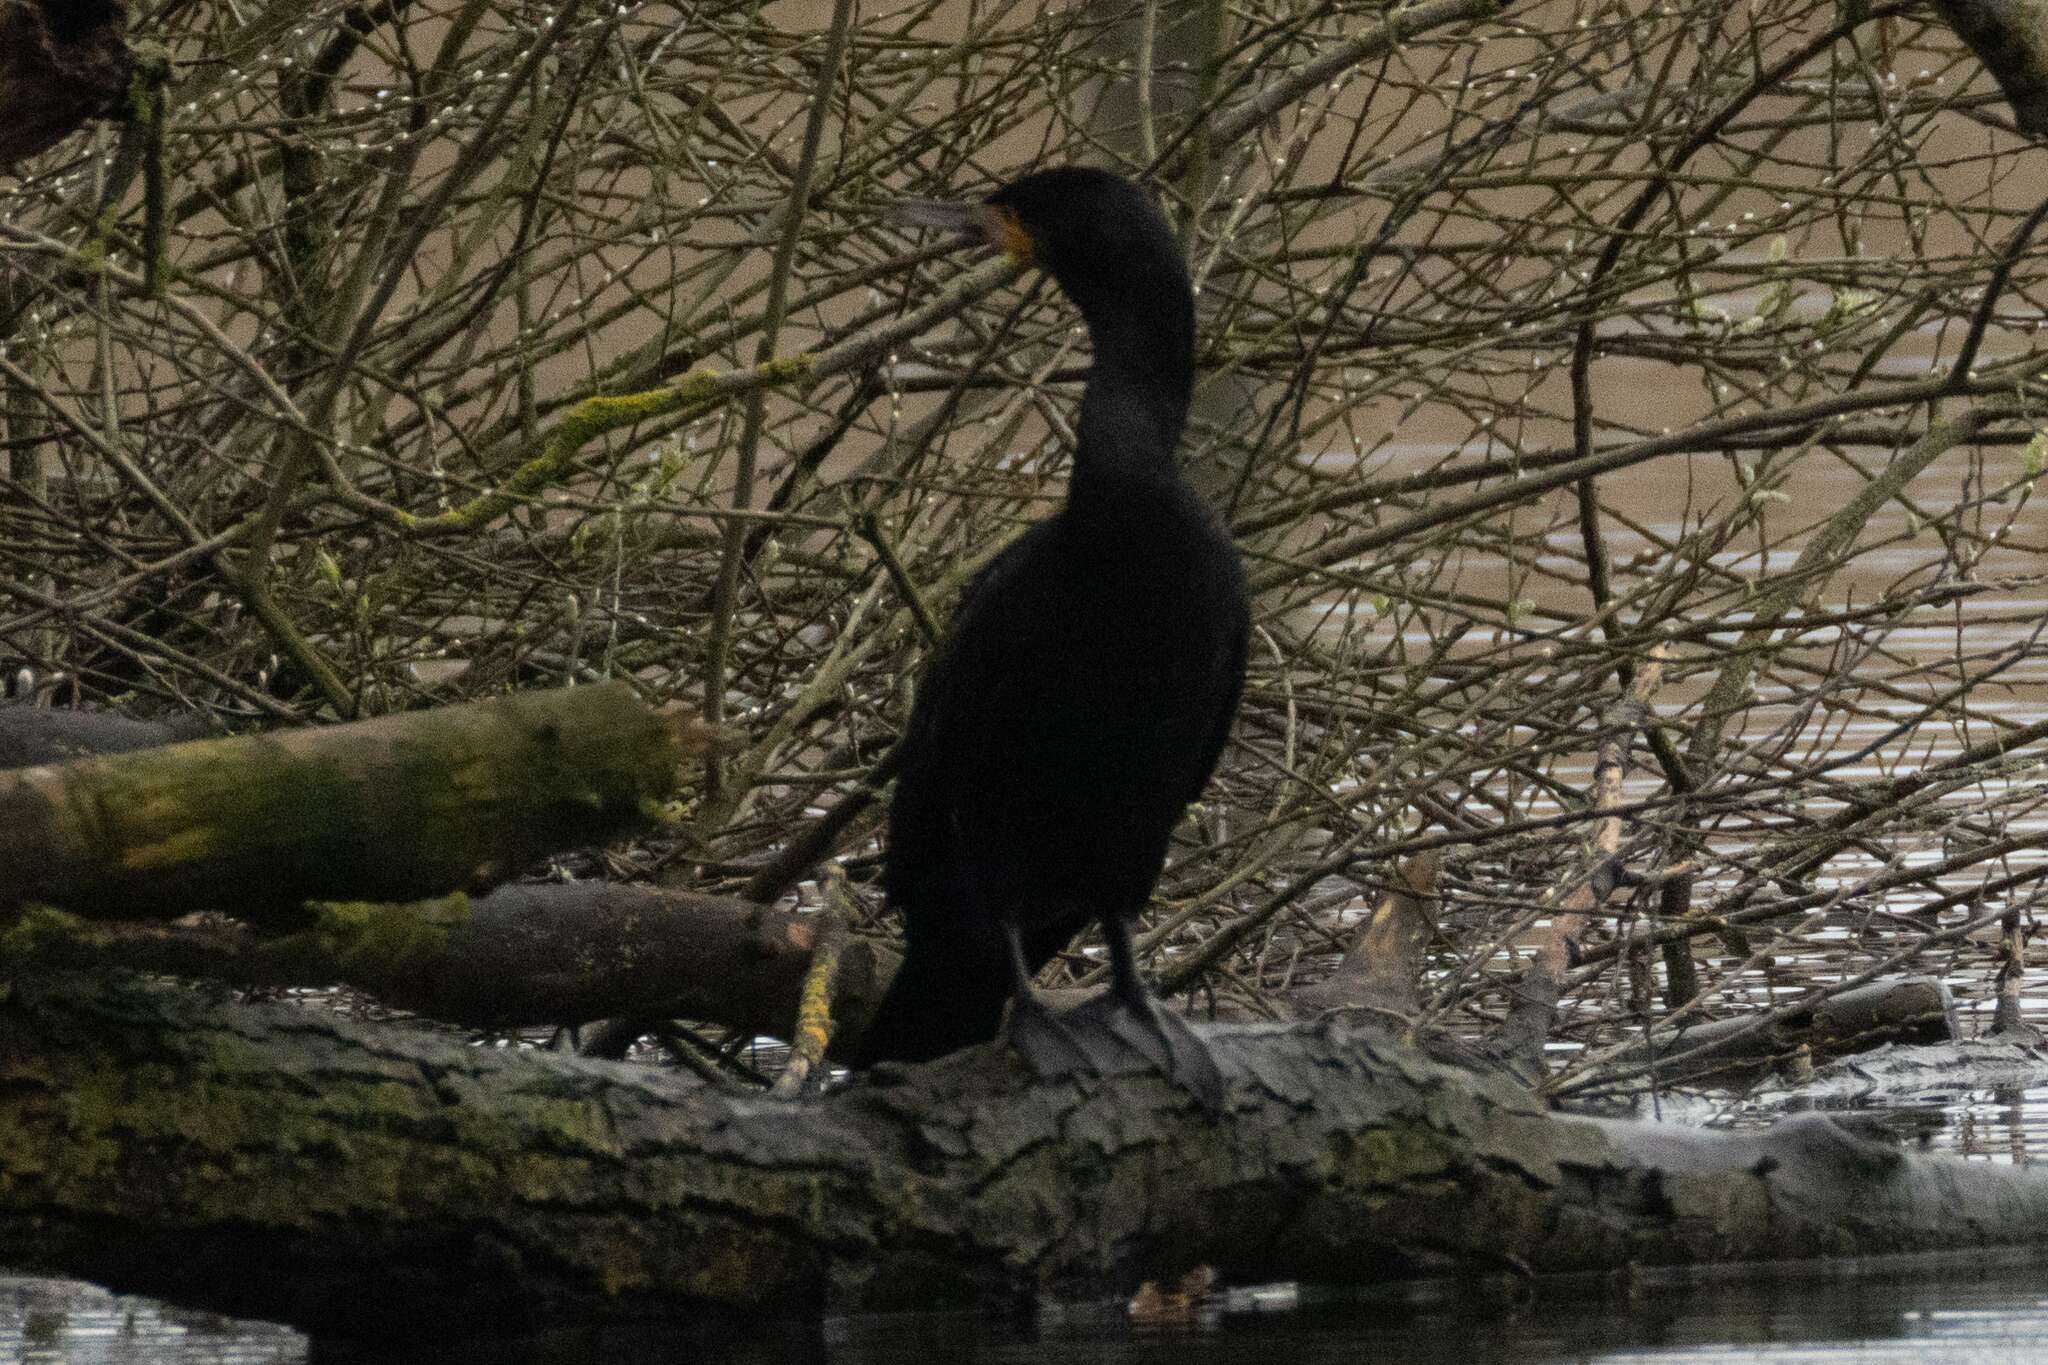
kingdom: Animalia
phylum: Chordata
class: Aves
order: Suliformes
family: Phalacrocoracidae
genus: Phalacrocorax
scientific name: Phalacrocorax carbo
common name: Great cormorant
